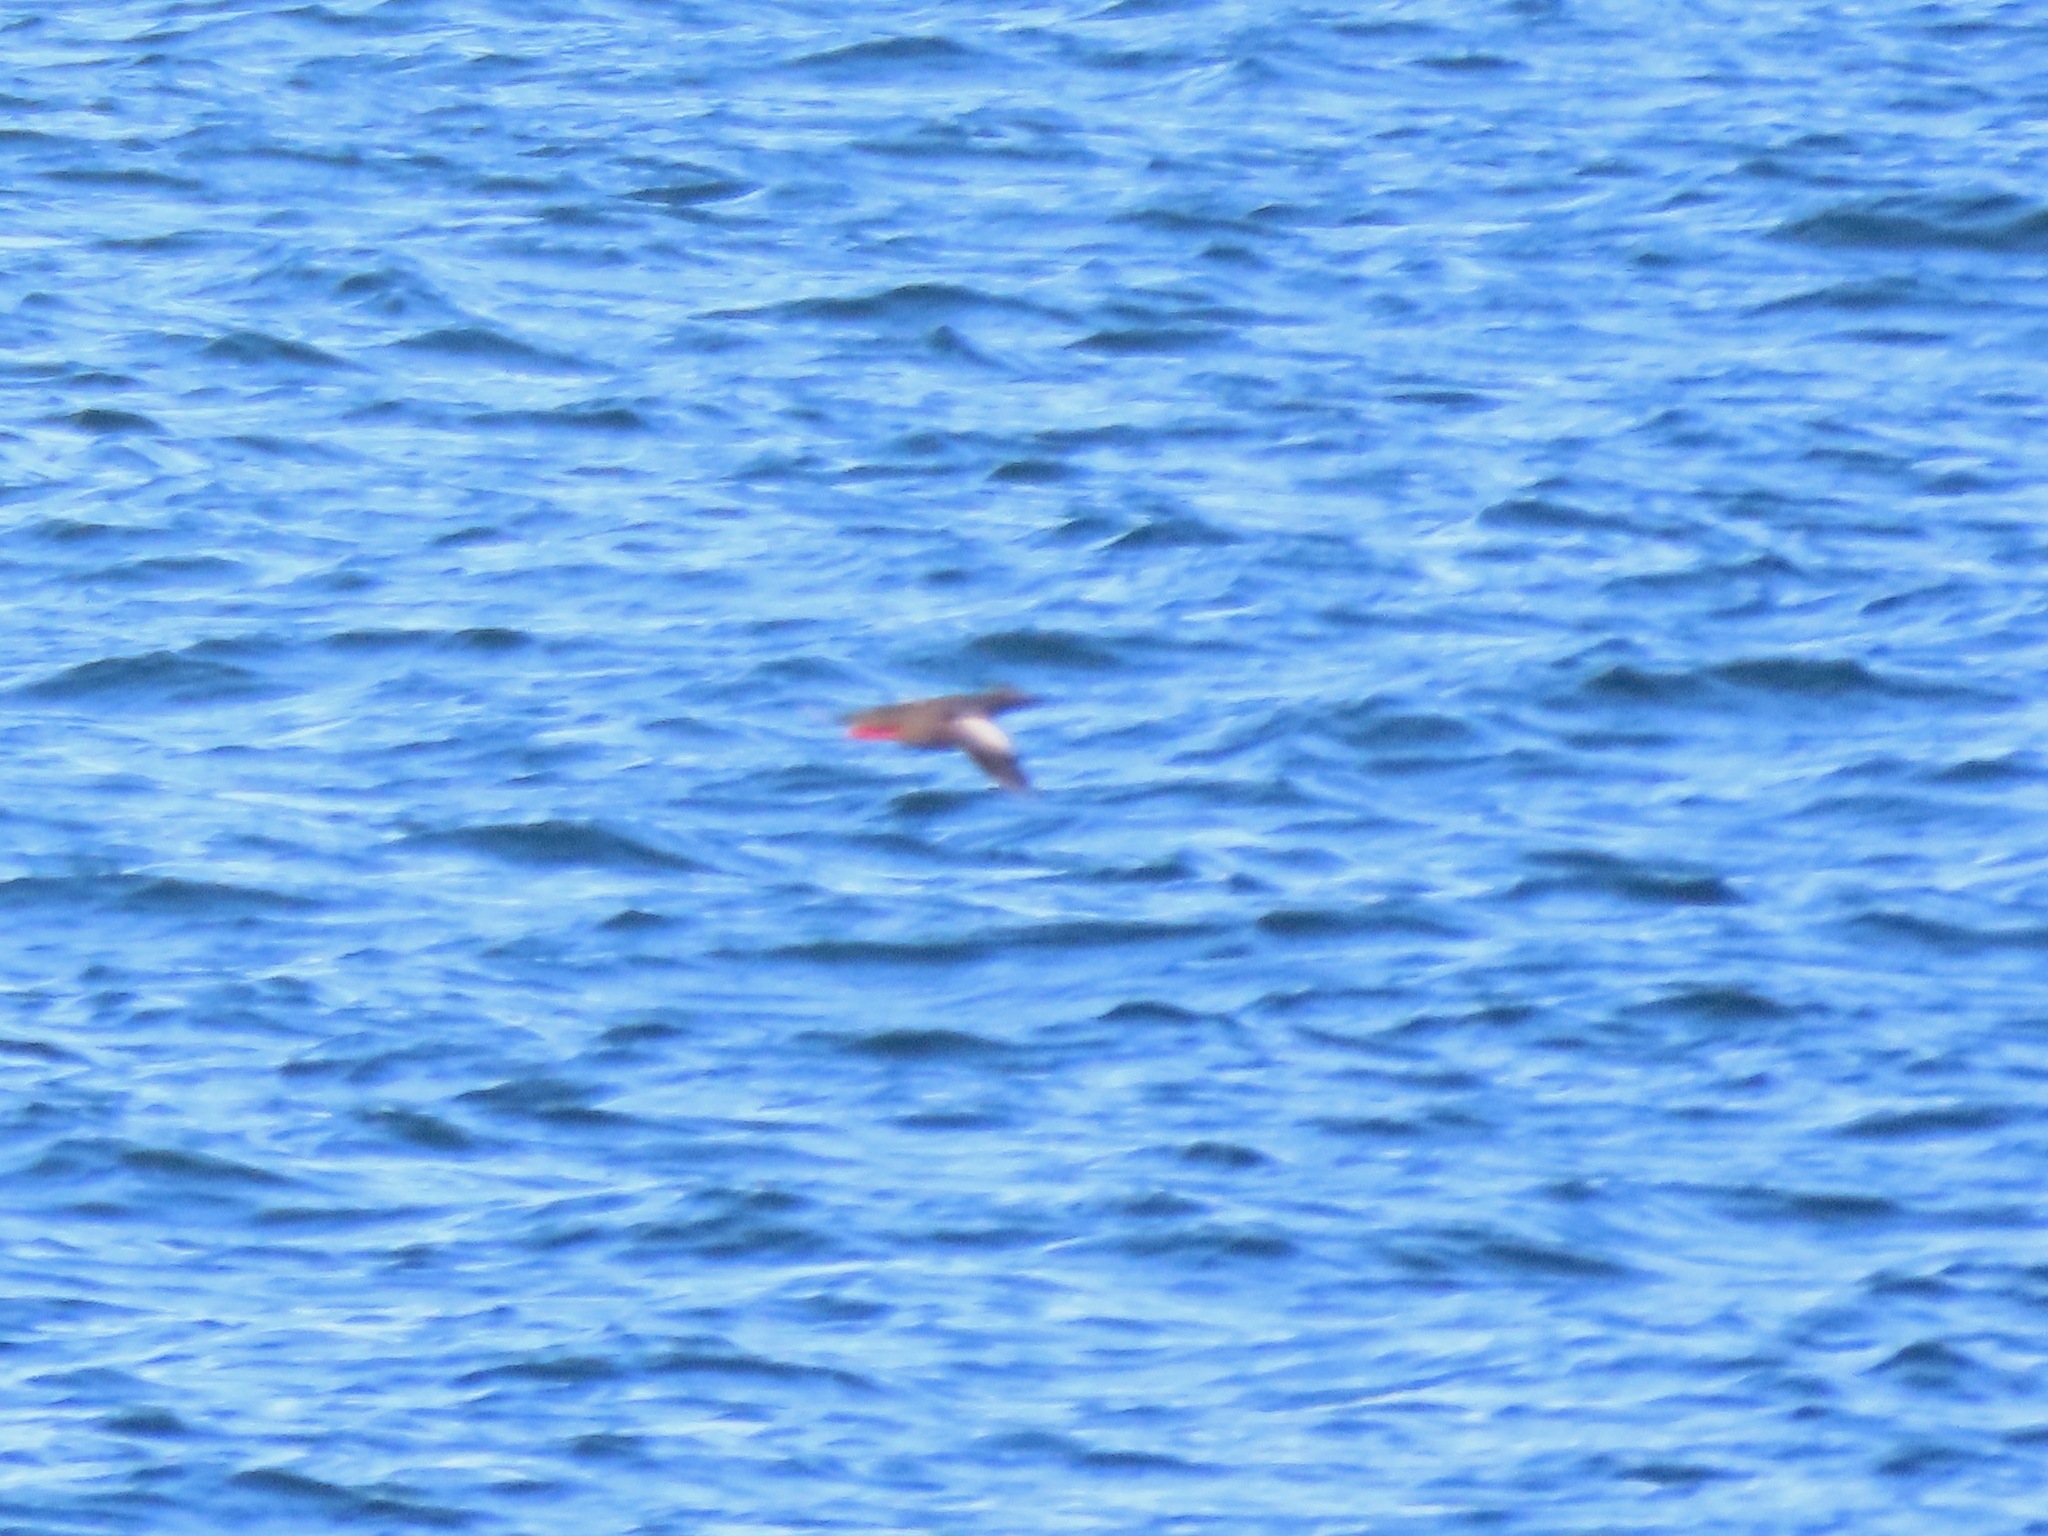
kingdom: Animalia
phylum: Chordata
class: Aves
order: Charadriiformes
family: Alcidae
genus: Cepphus
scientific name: Cepphus columba
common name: Pigeon guillemot
